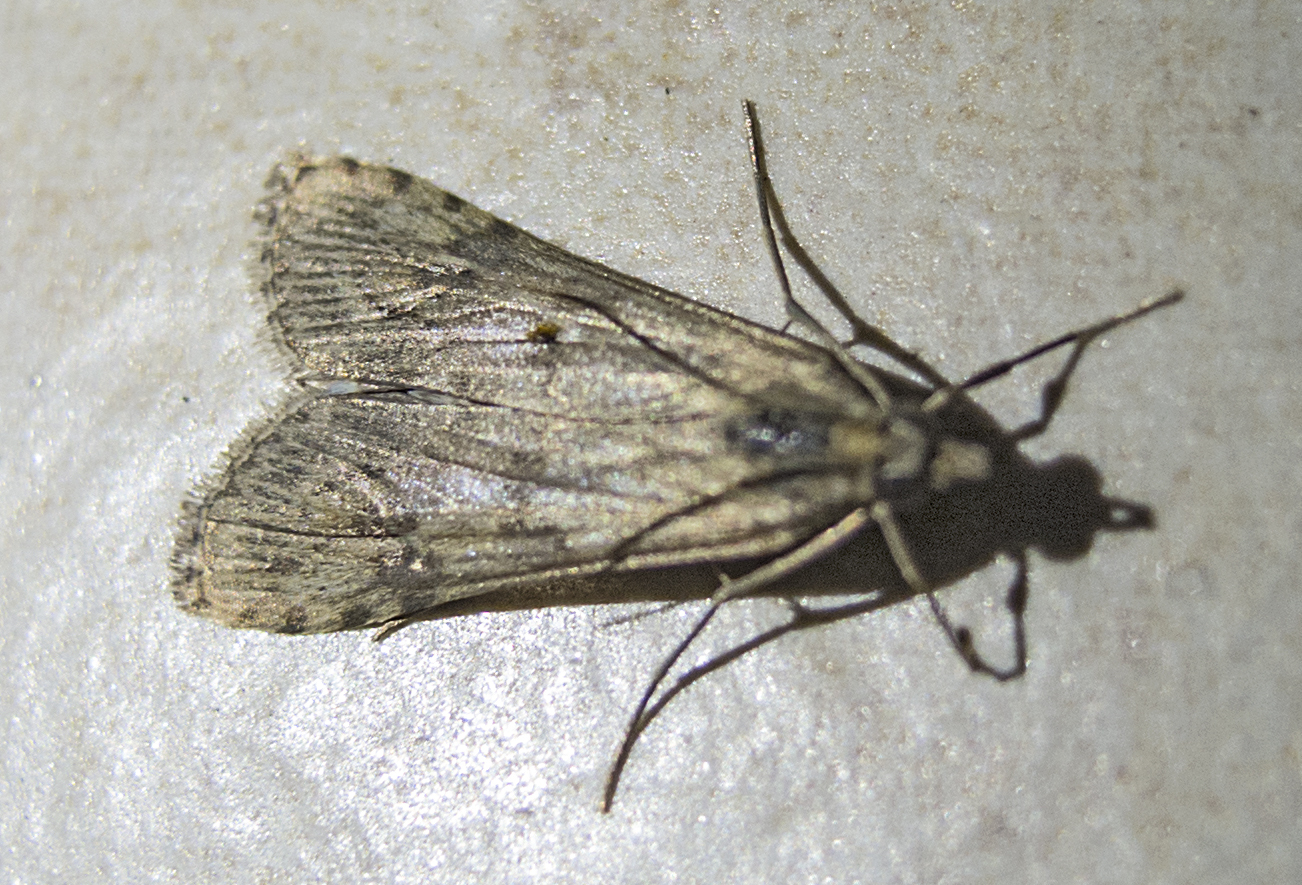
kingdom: Animalia
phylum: Arthropoda
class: Insecta
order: Lepidoptera
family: Crambidae
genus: Nomophila
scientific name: Nomophila noctuella
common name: Rush veneer
